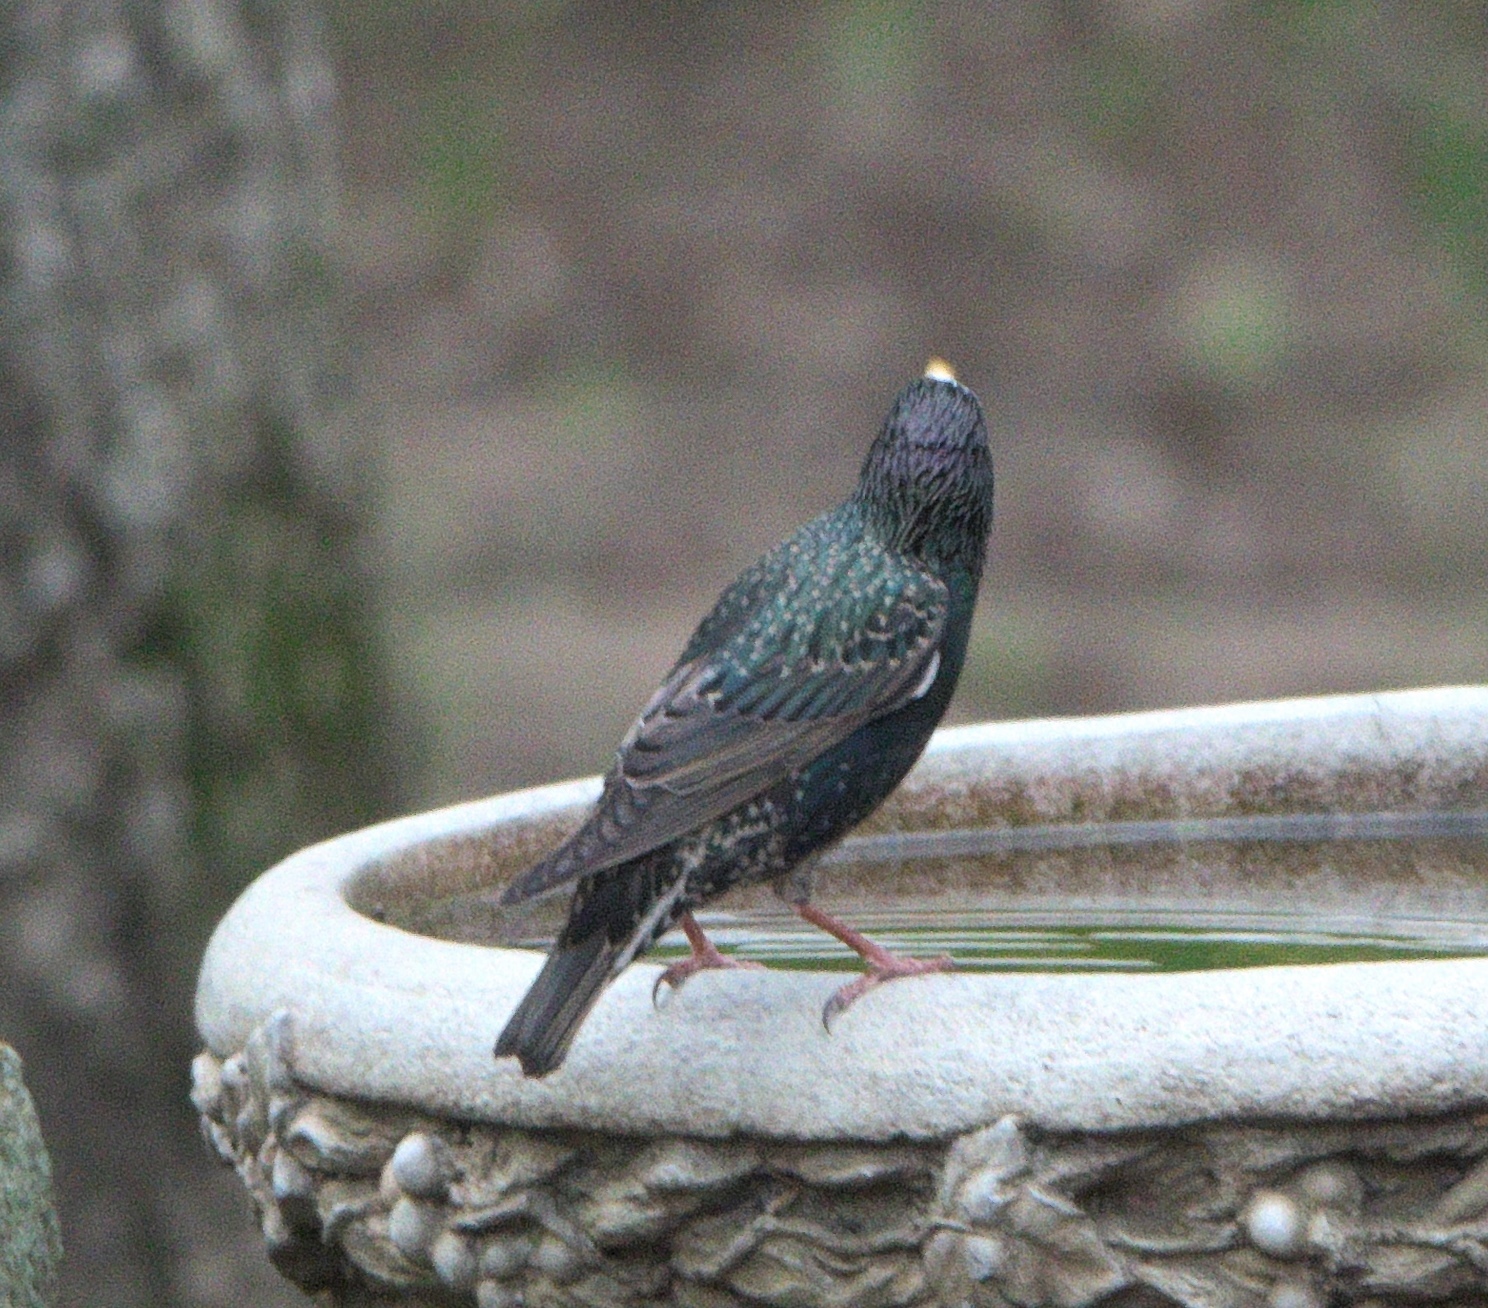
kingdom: Animalia
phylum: Chordata
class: Aves
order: Passeriformes
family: Sturnidae
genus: Sturnus
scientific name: Sturnus vulgaris
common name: Common starling
